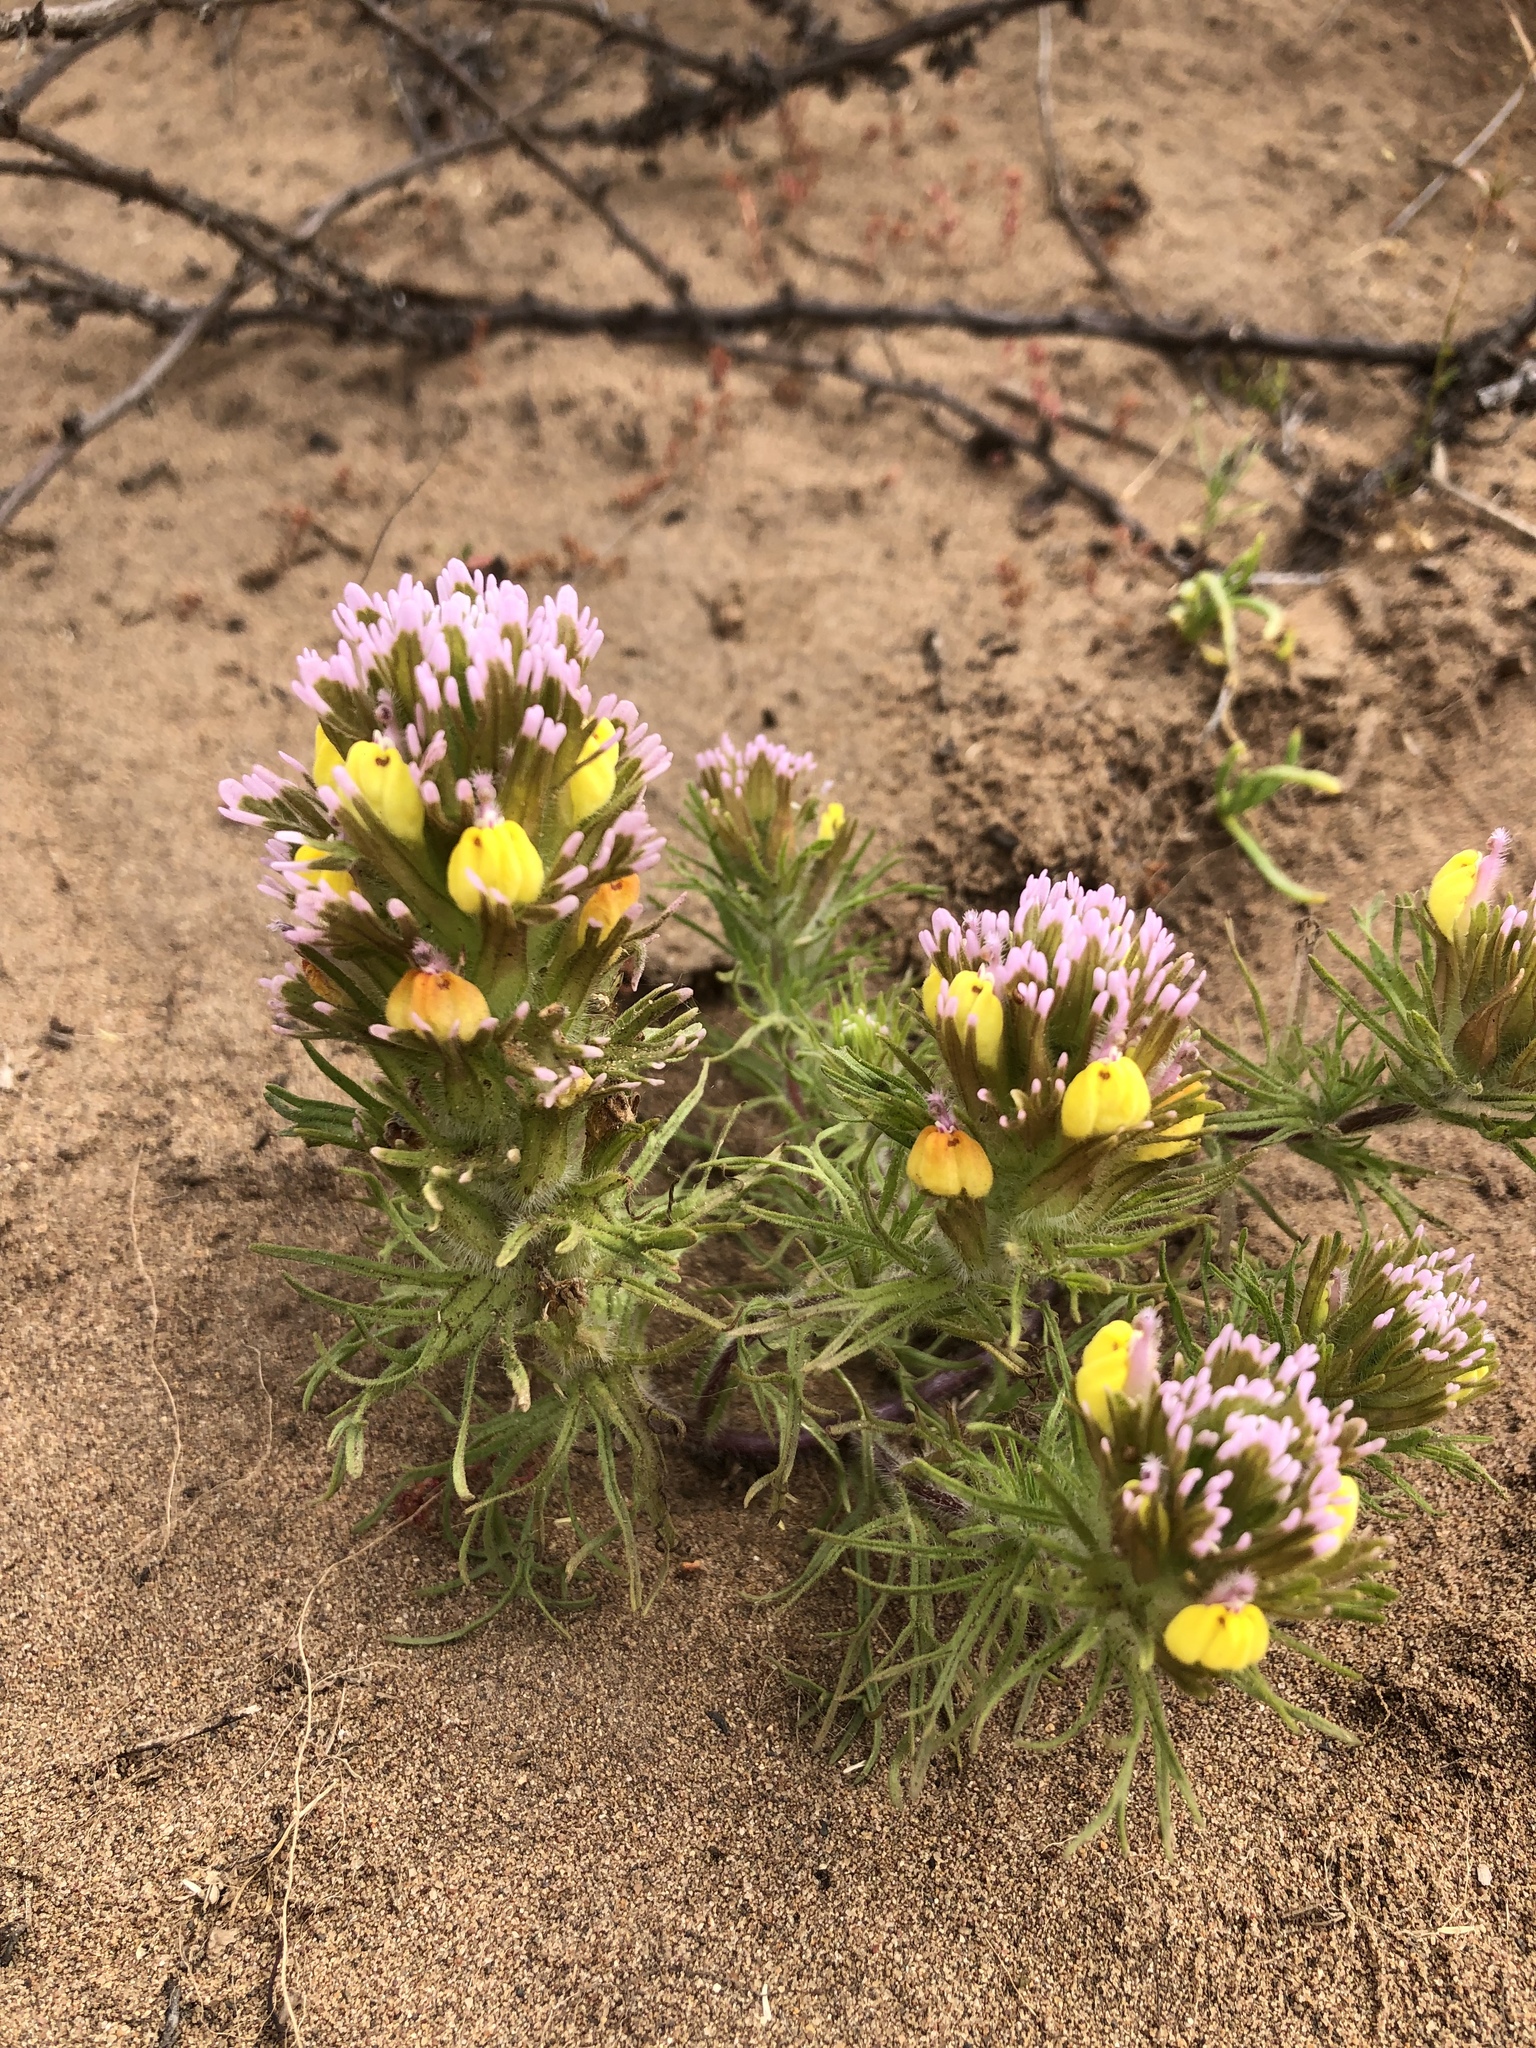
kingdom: Plantae
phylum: Tracheophyta
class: Magnoliopsida
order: Lamiales
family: Orobanchaceae
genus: Castilleja
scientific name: Castilleja exserta
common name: Purple owl-clover
